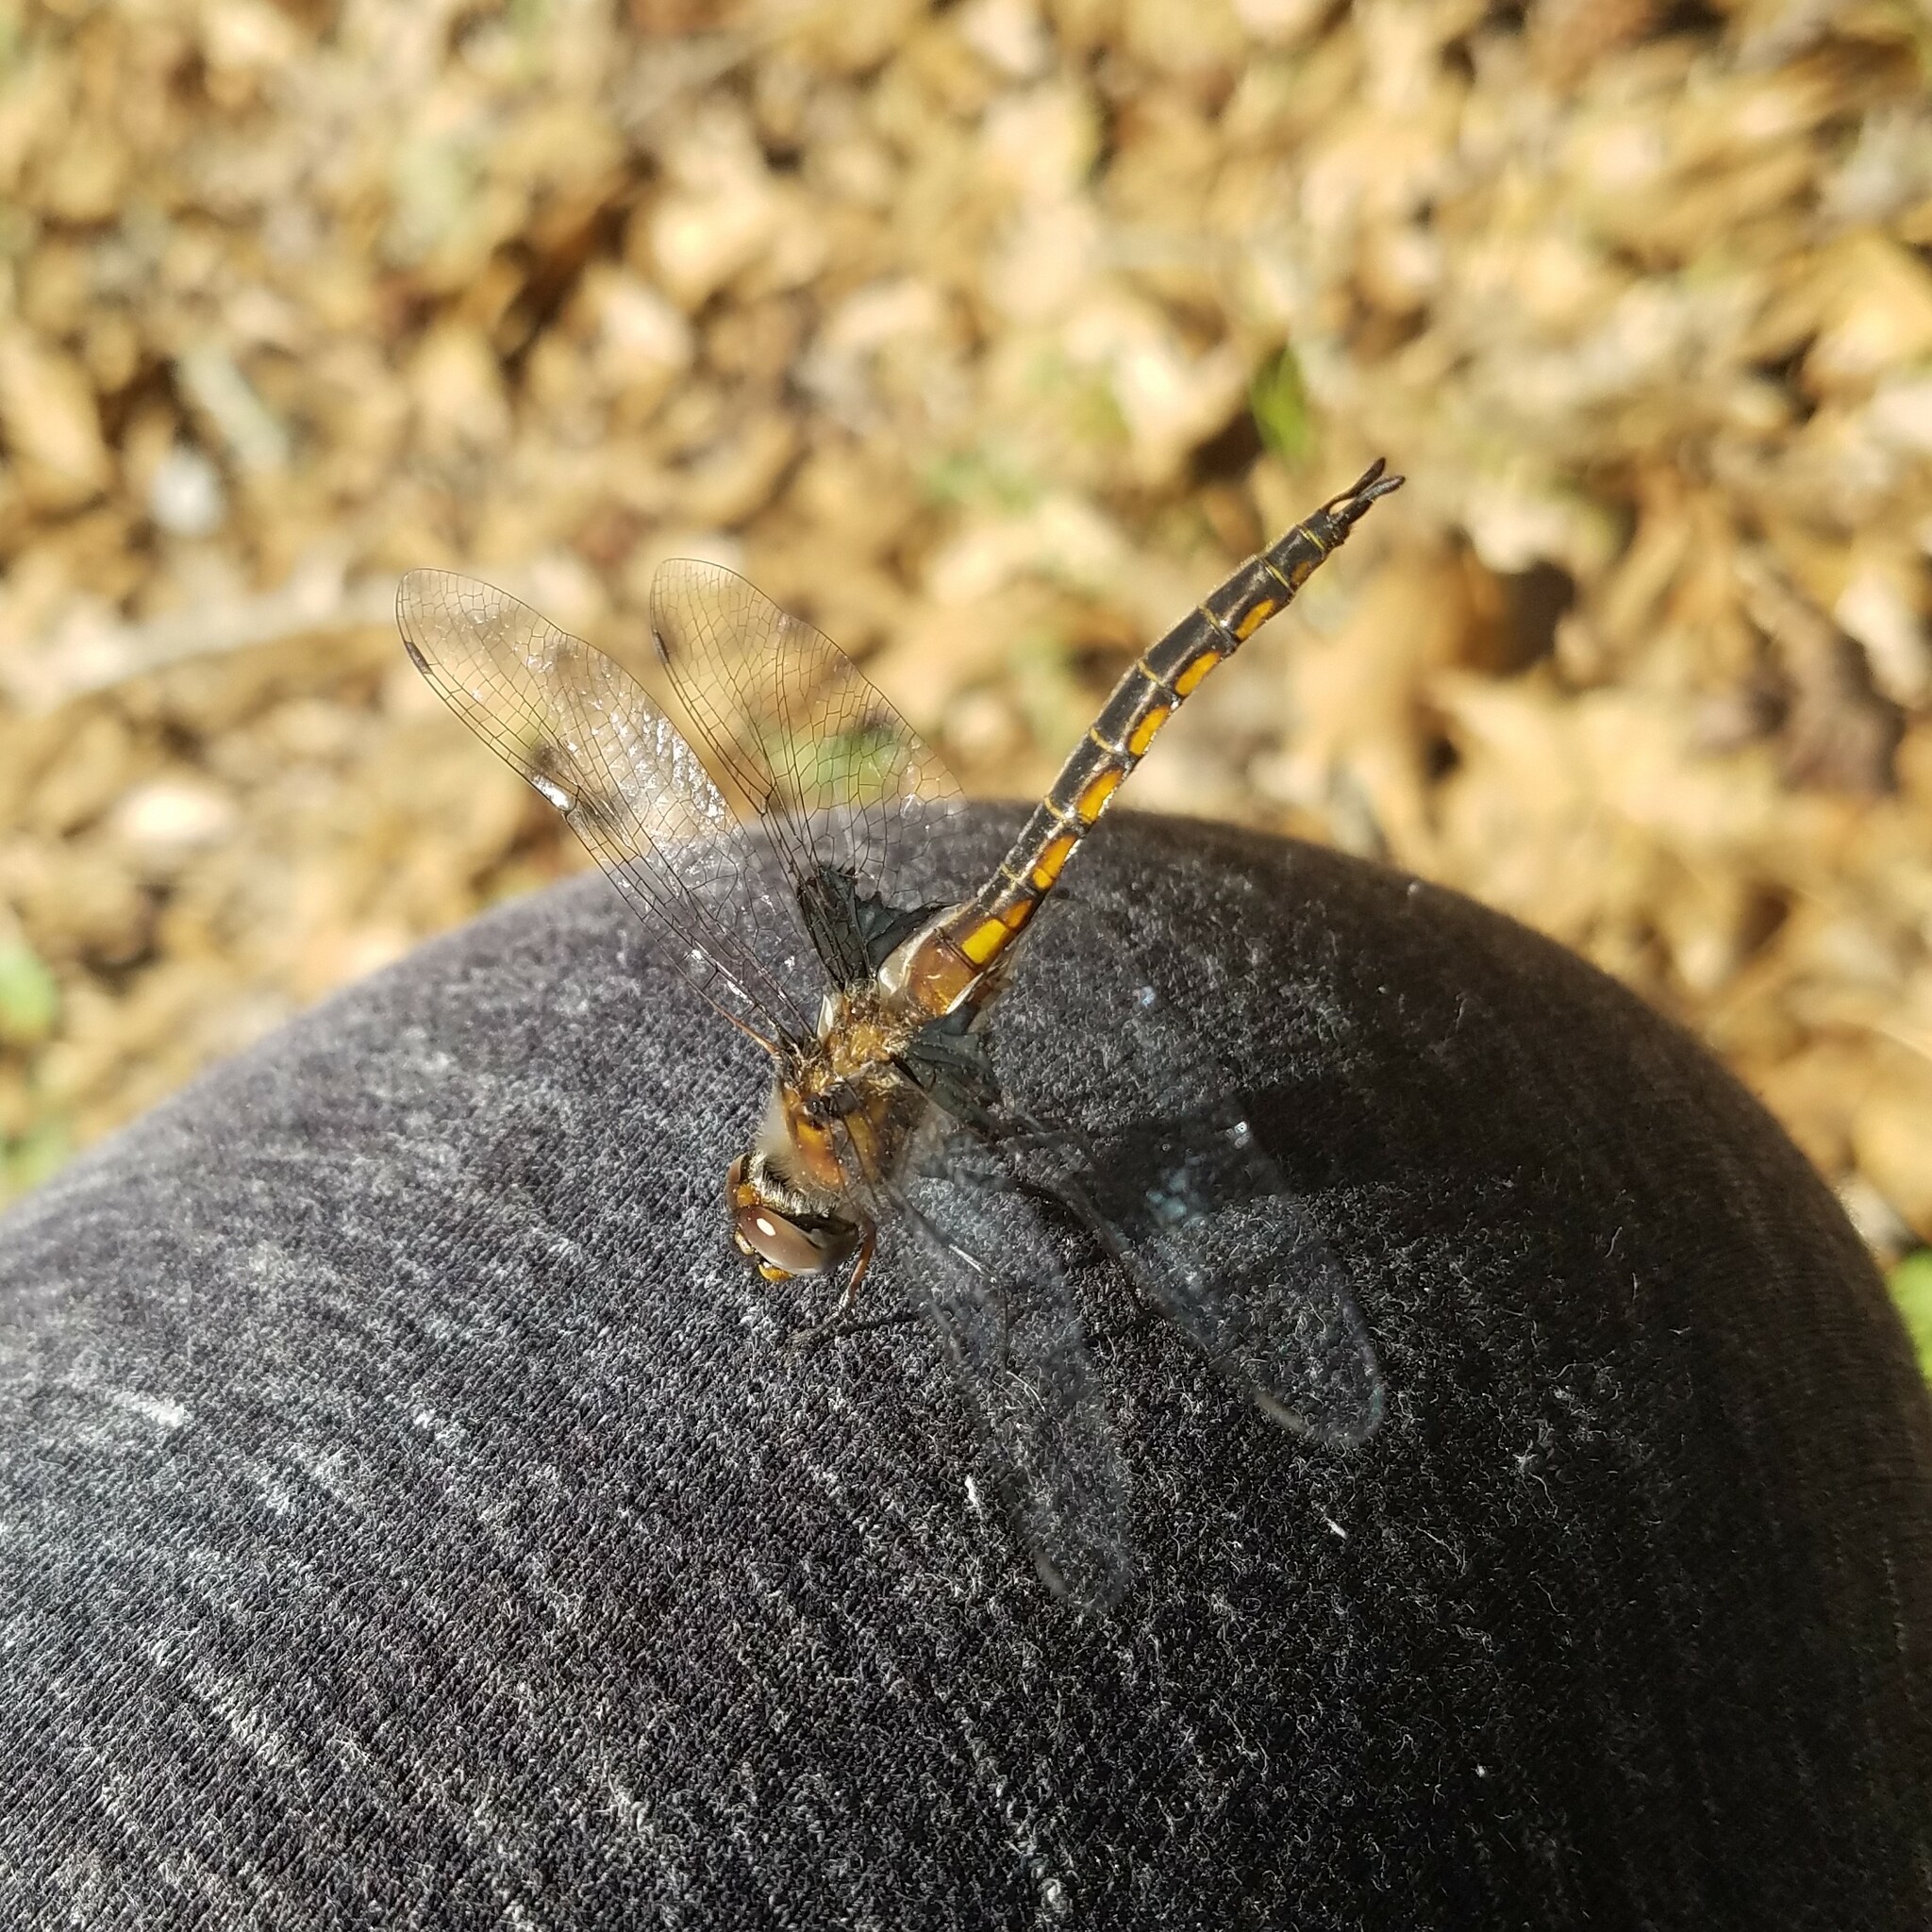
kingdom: Animalia
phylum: Arthropoda
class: Insecta
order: Odonata
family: Corduliidae
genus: Epitheca
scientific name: Epitheca cynosura
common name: Common baskettail
